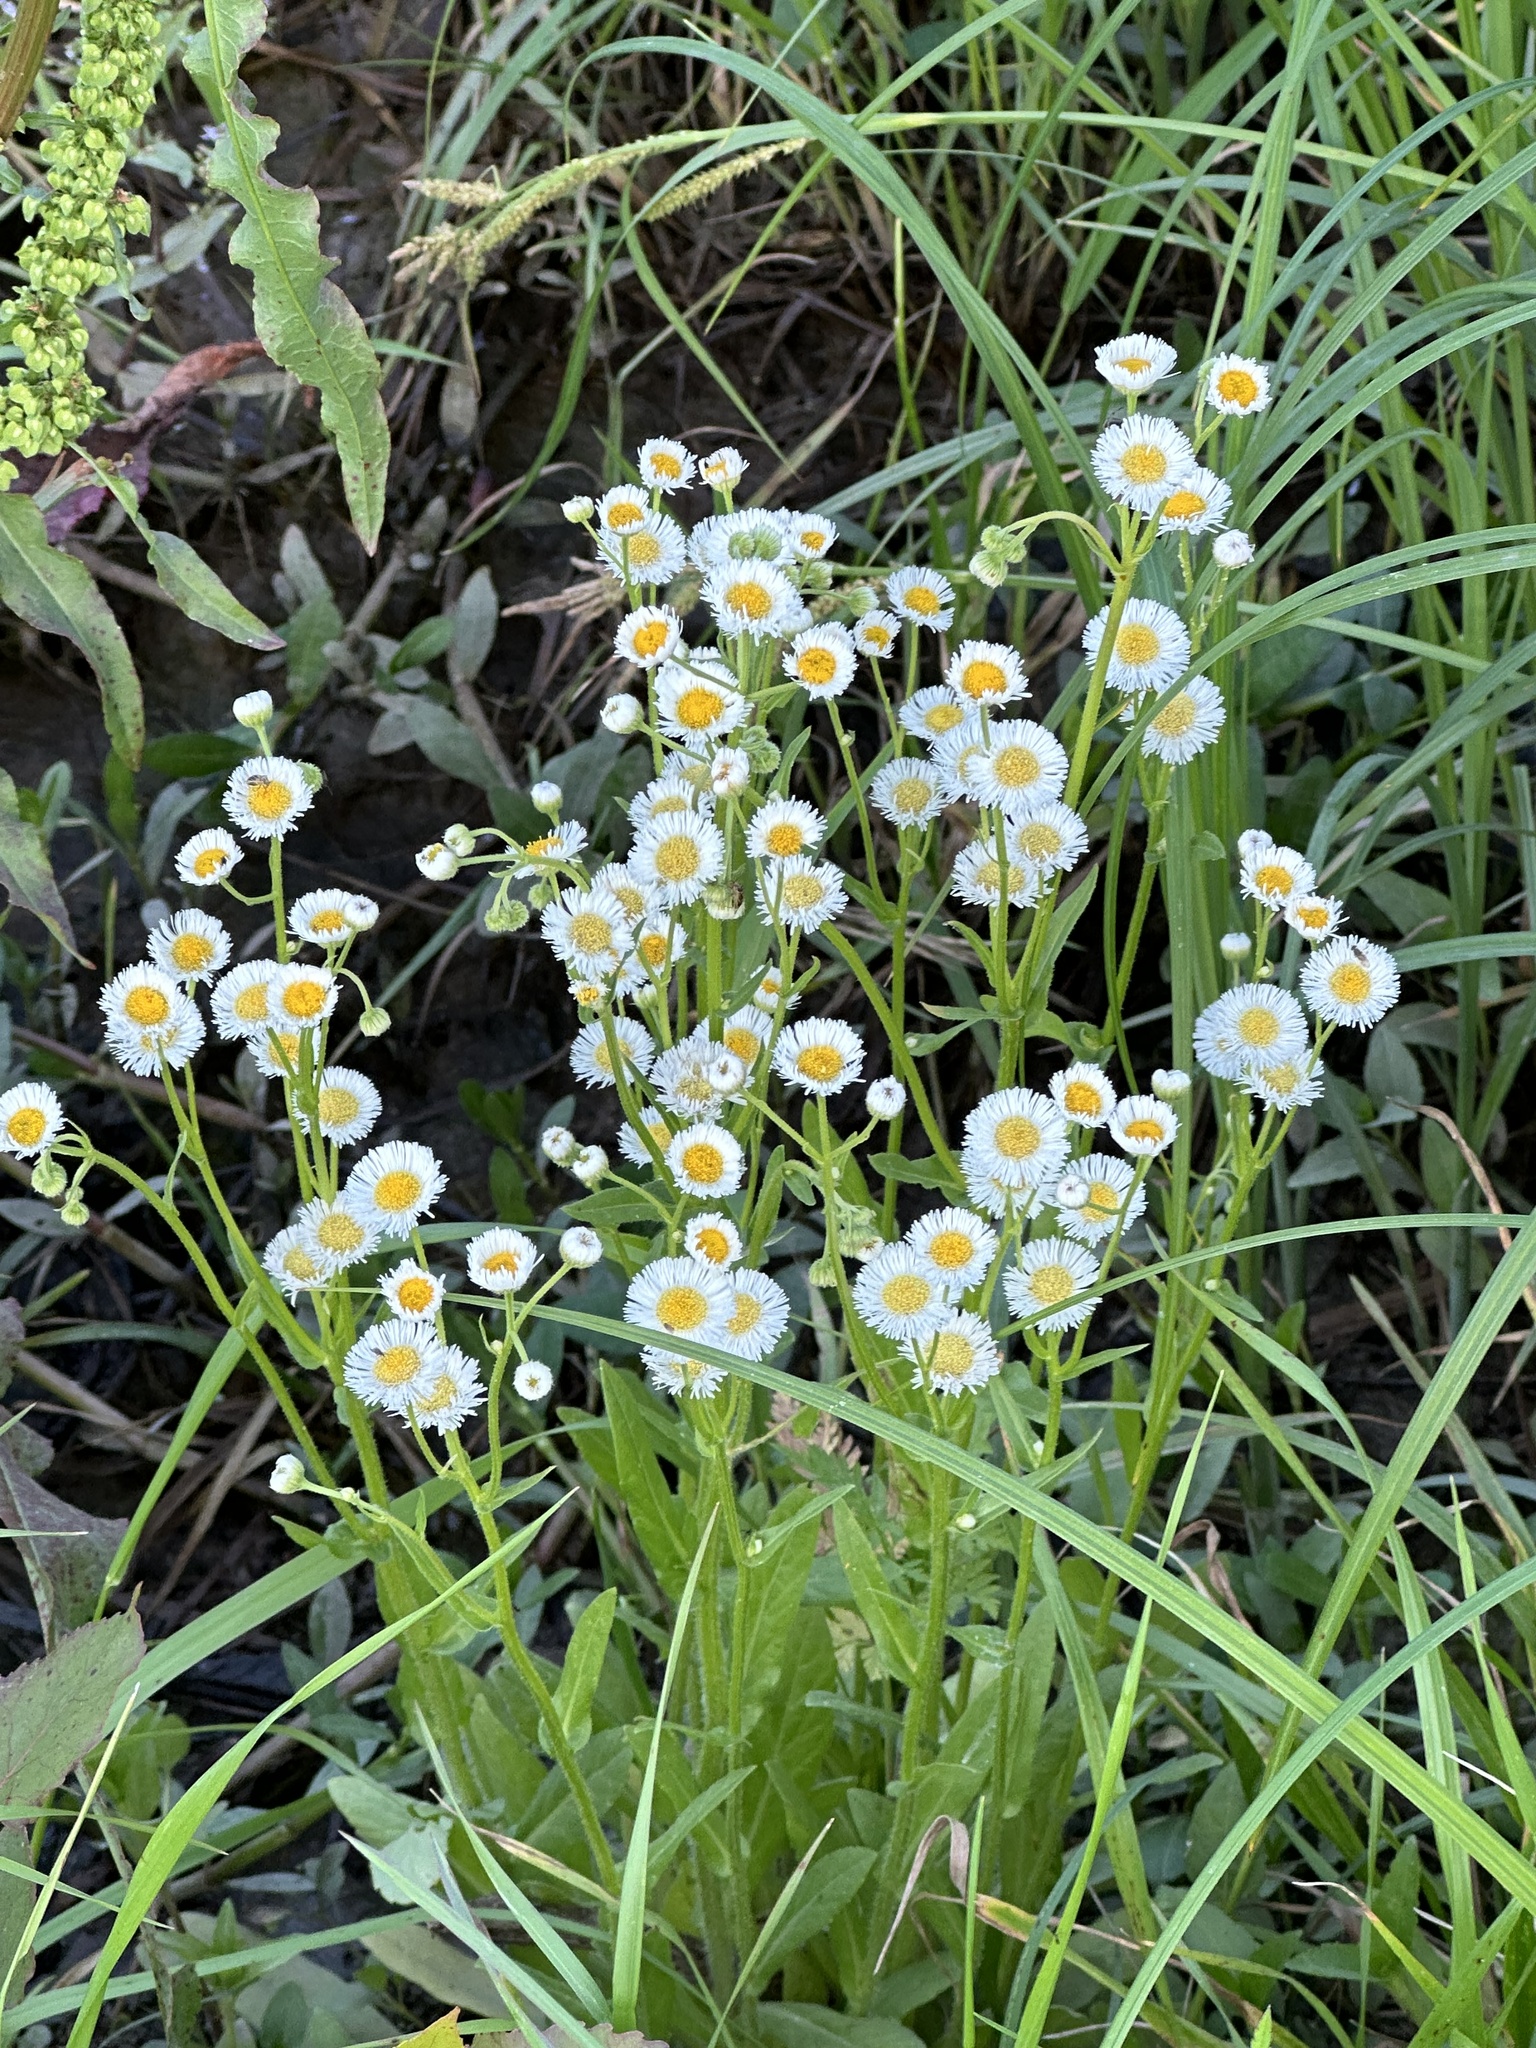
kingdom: Plantae
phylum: Tracheophyta
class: Magnoliopsida
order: Asterales
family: Asteraceae
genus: Erigeron
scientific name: Erigeron philadelphicus
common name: Robin's-plantain
